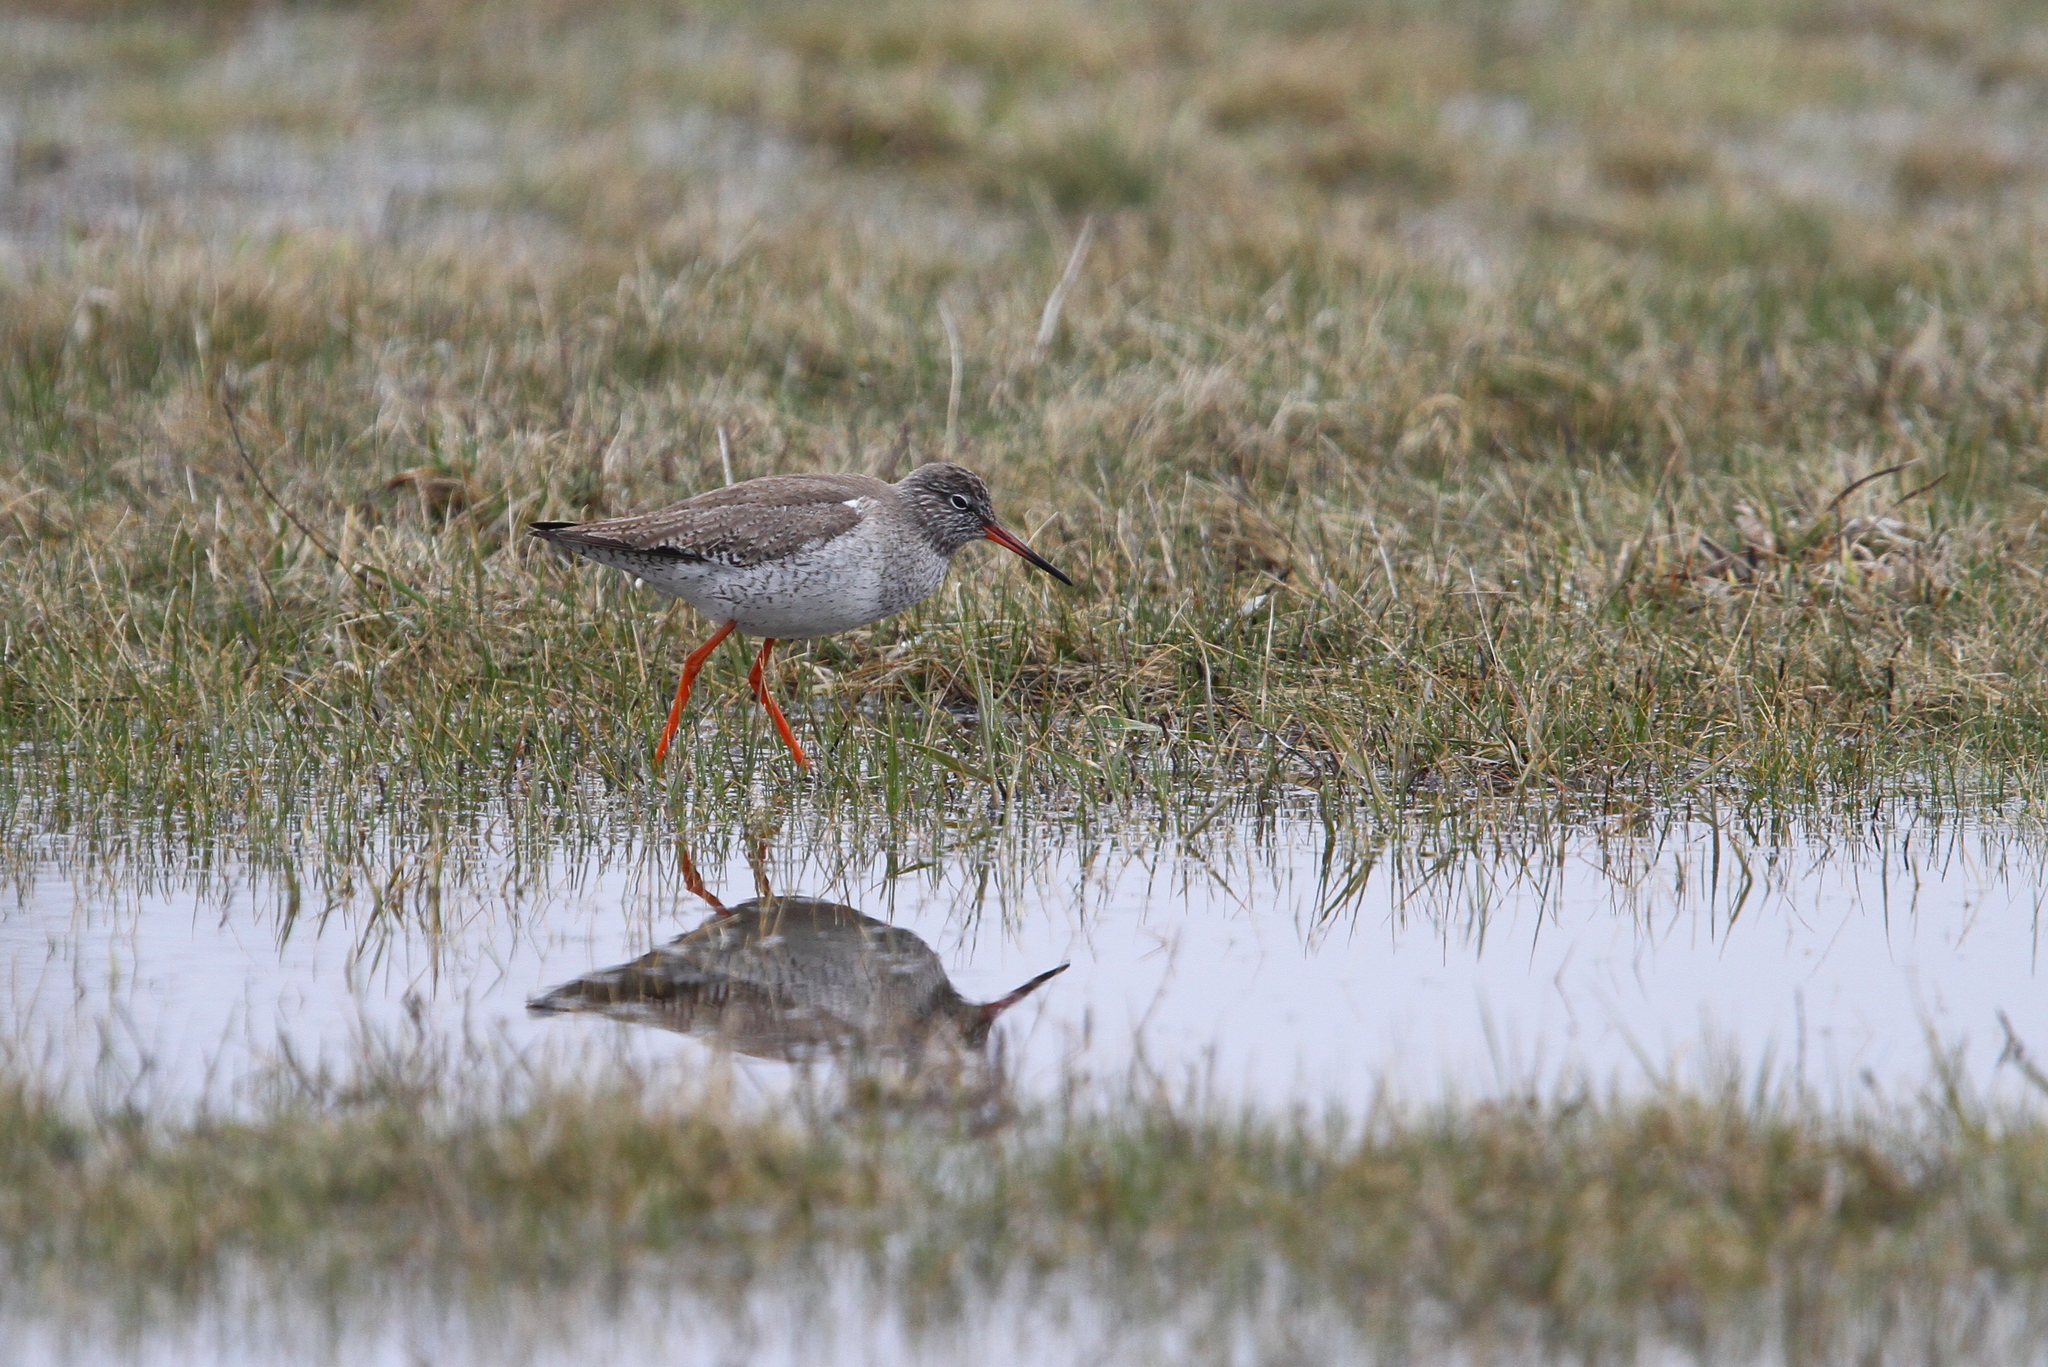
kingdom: Animalia
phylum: Chordata
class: Aves
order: Charadriiformes
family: Scolopacidae
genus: Tringa
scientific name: Tringa totanus
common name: Common redshank
